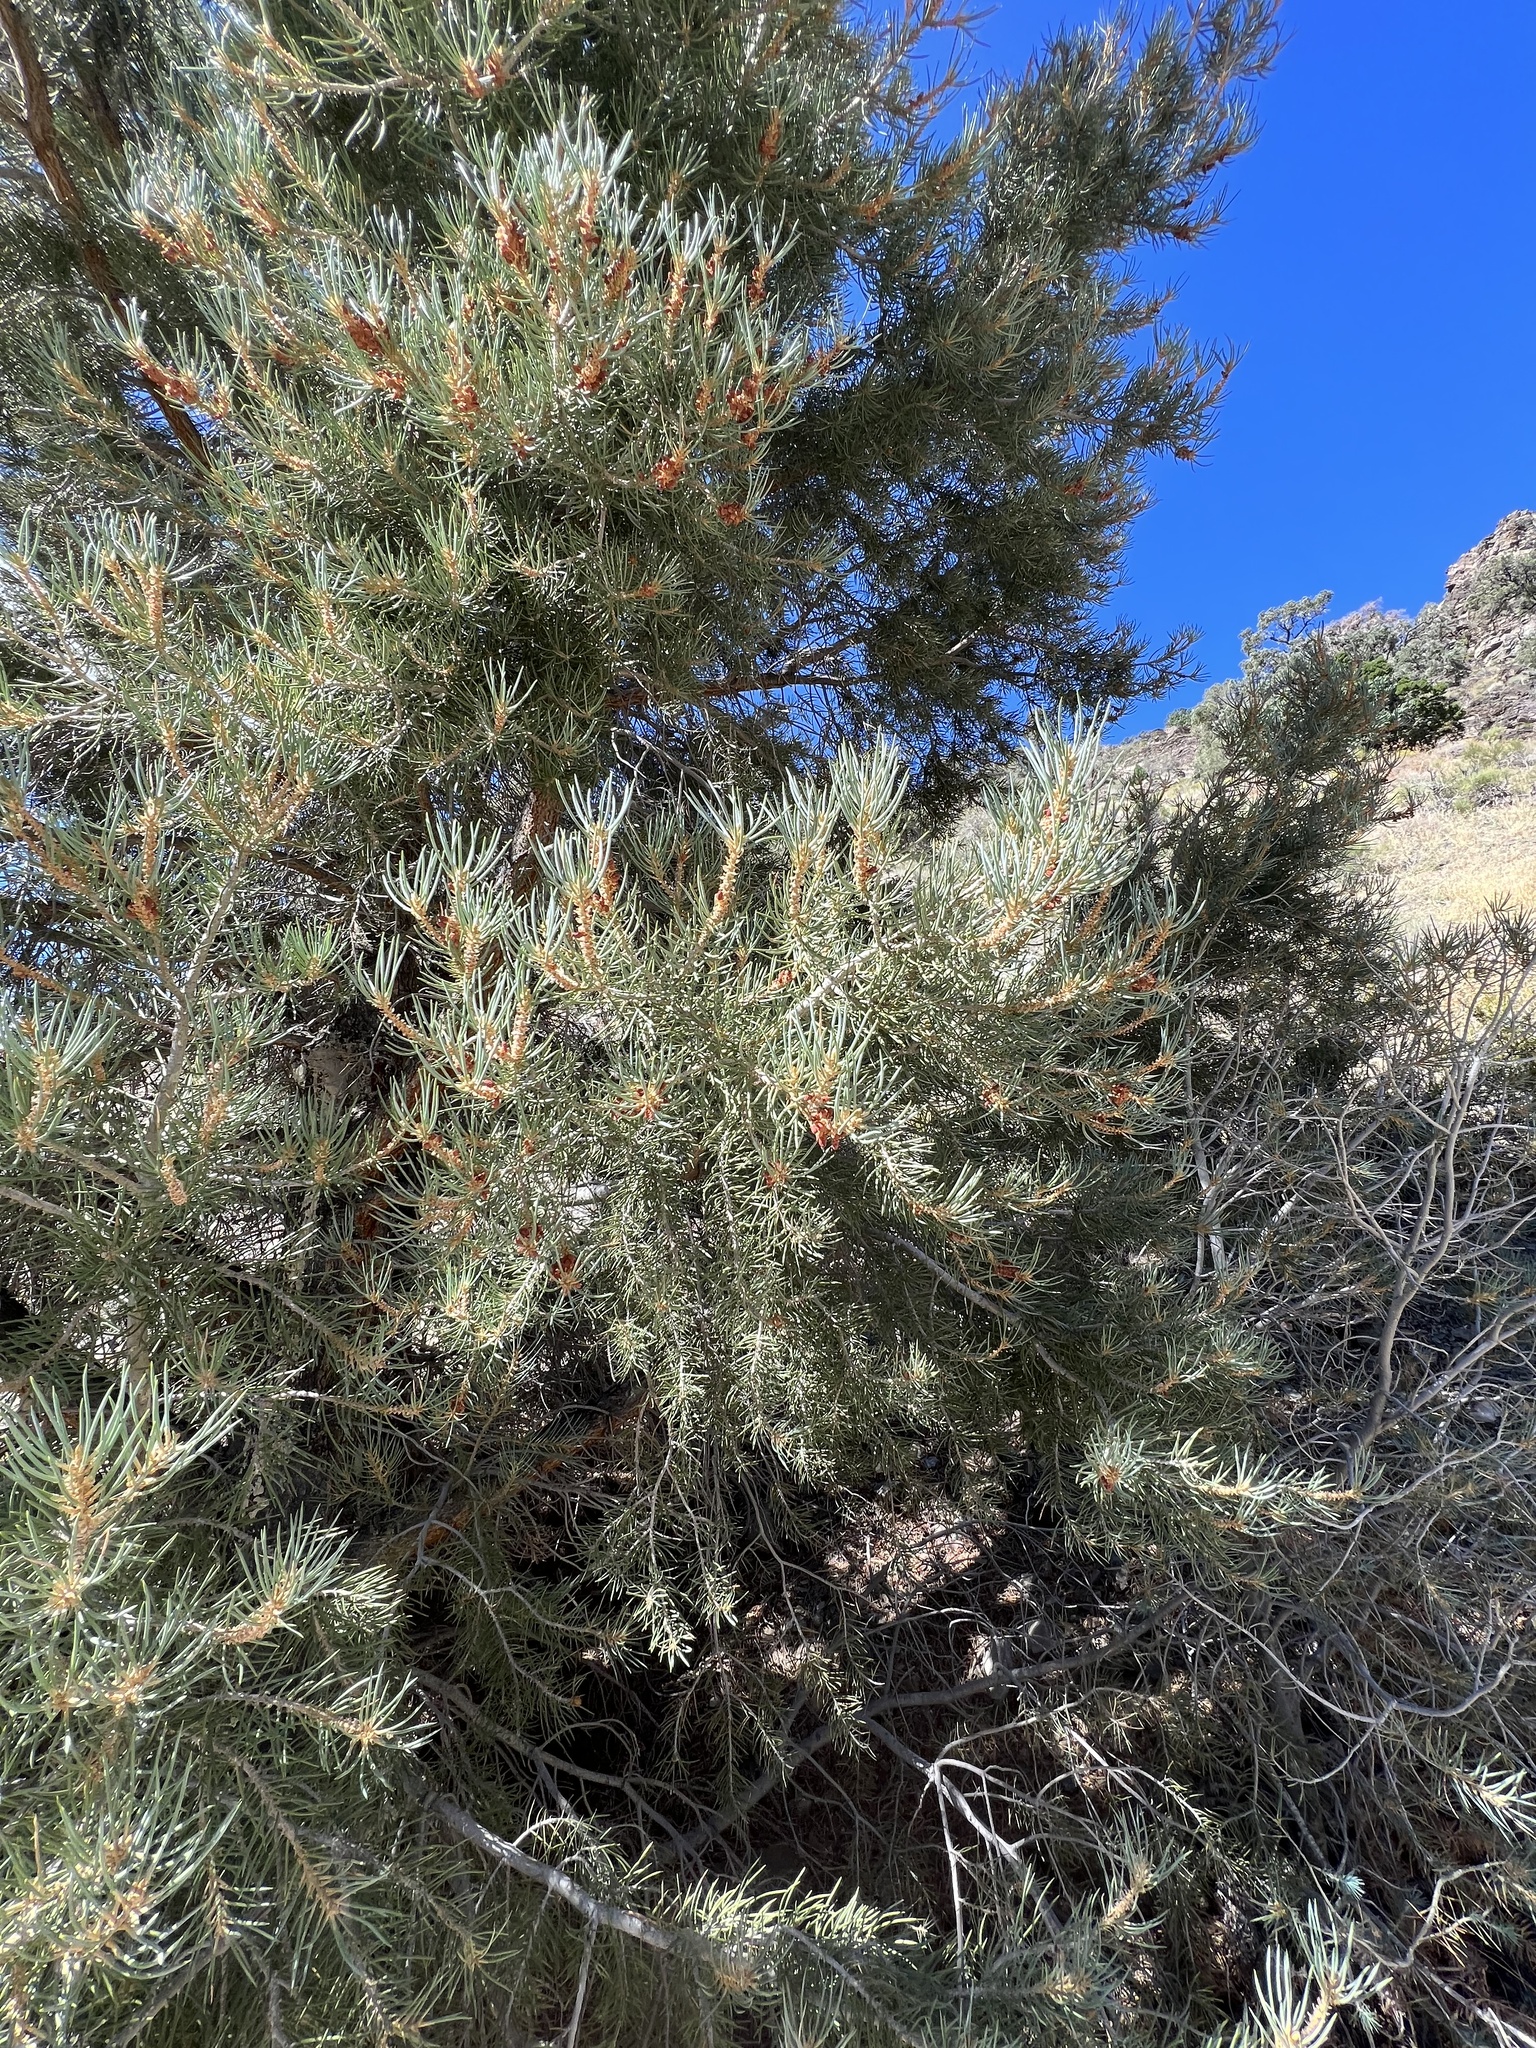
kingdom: Plantae
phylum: Tracheophyta
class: Pinopsida
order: Pinales
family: Pinaceae
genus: Pinus
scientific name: Pinus monophylla
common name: One-leaved nut pine
